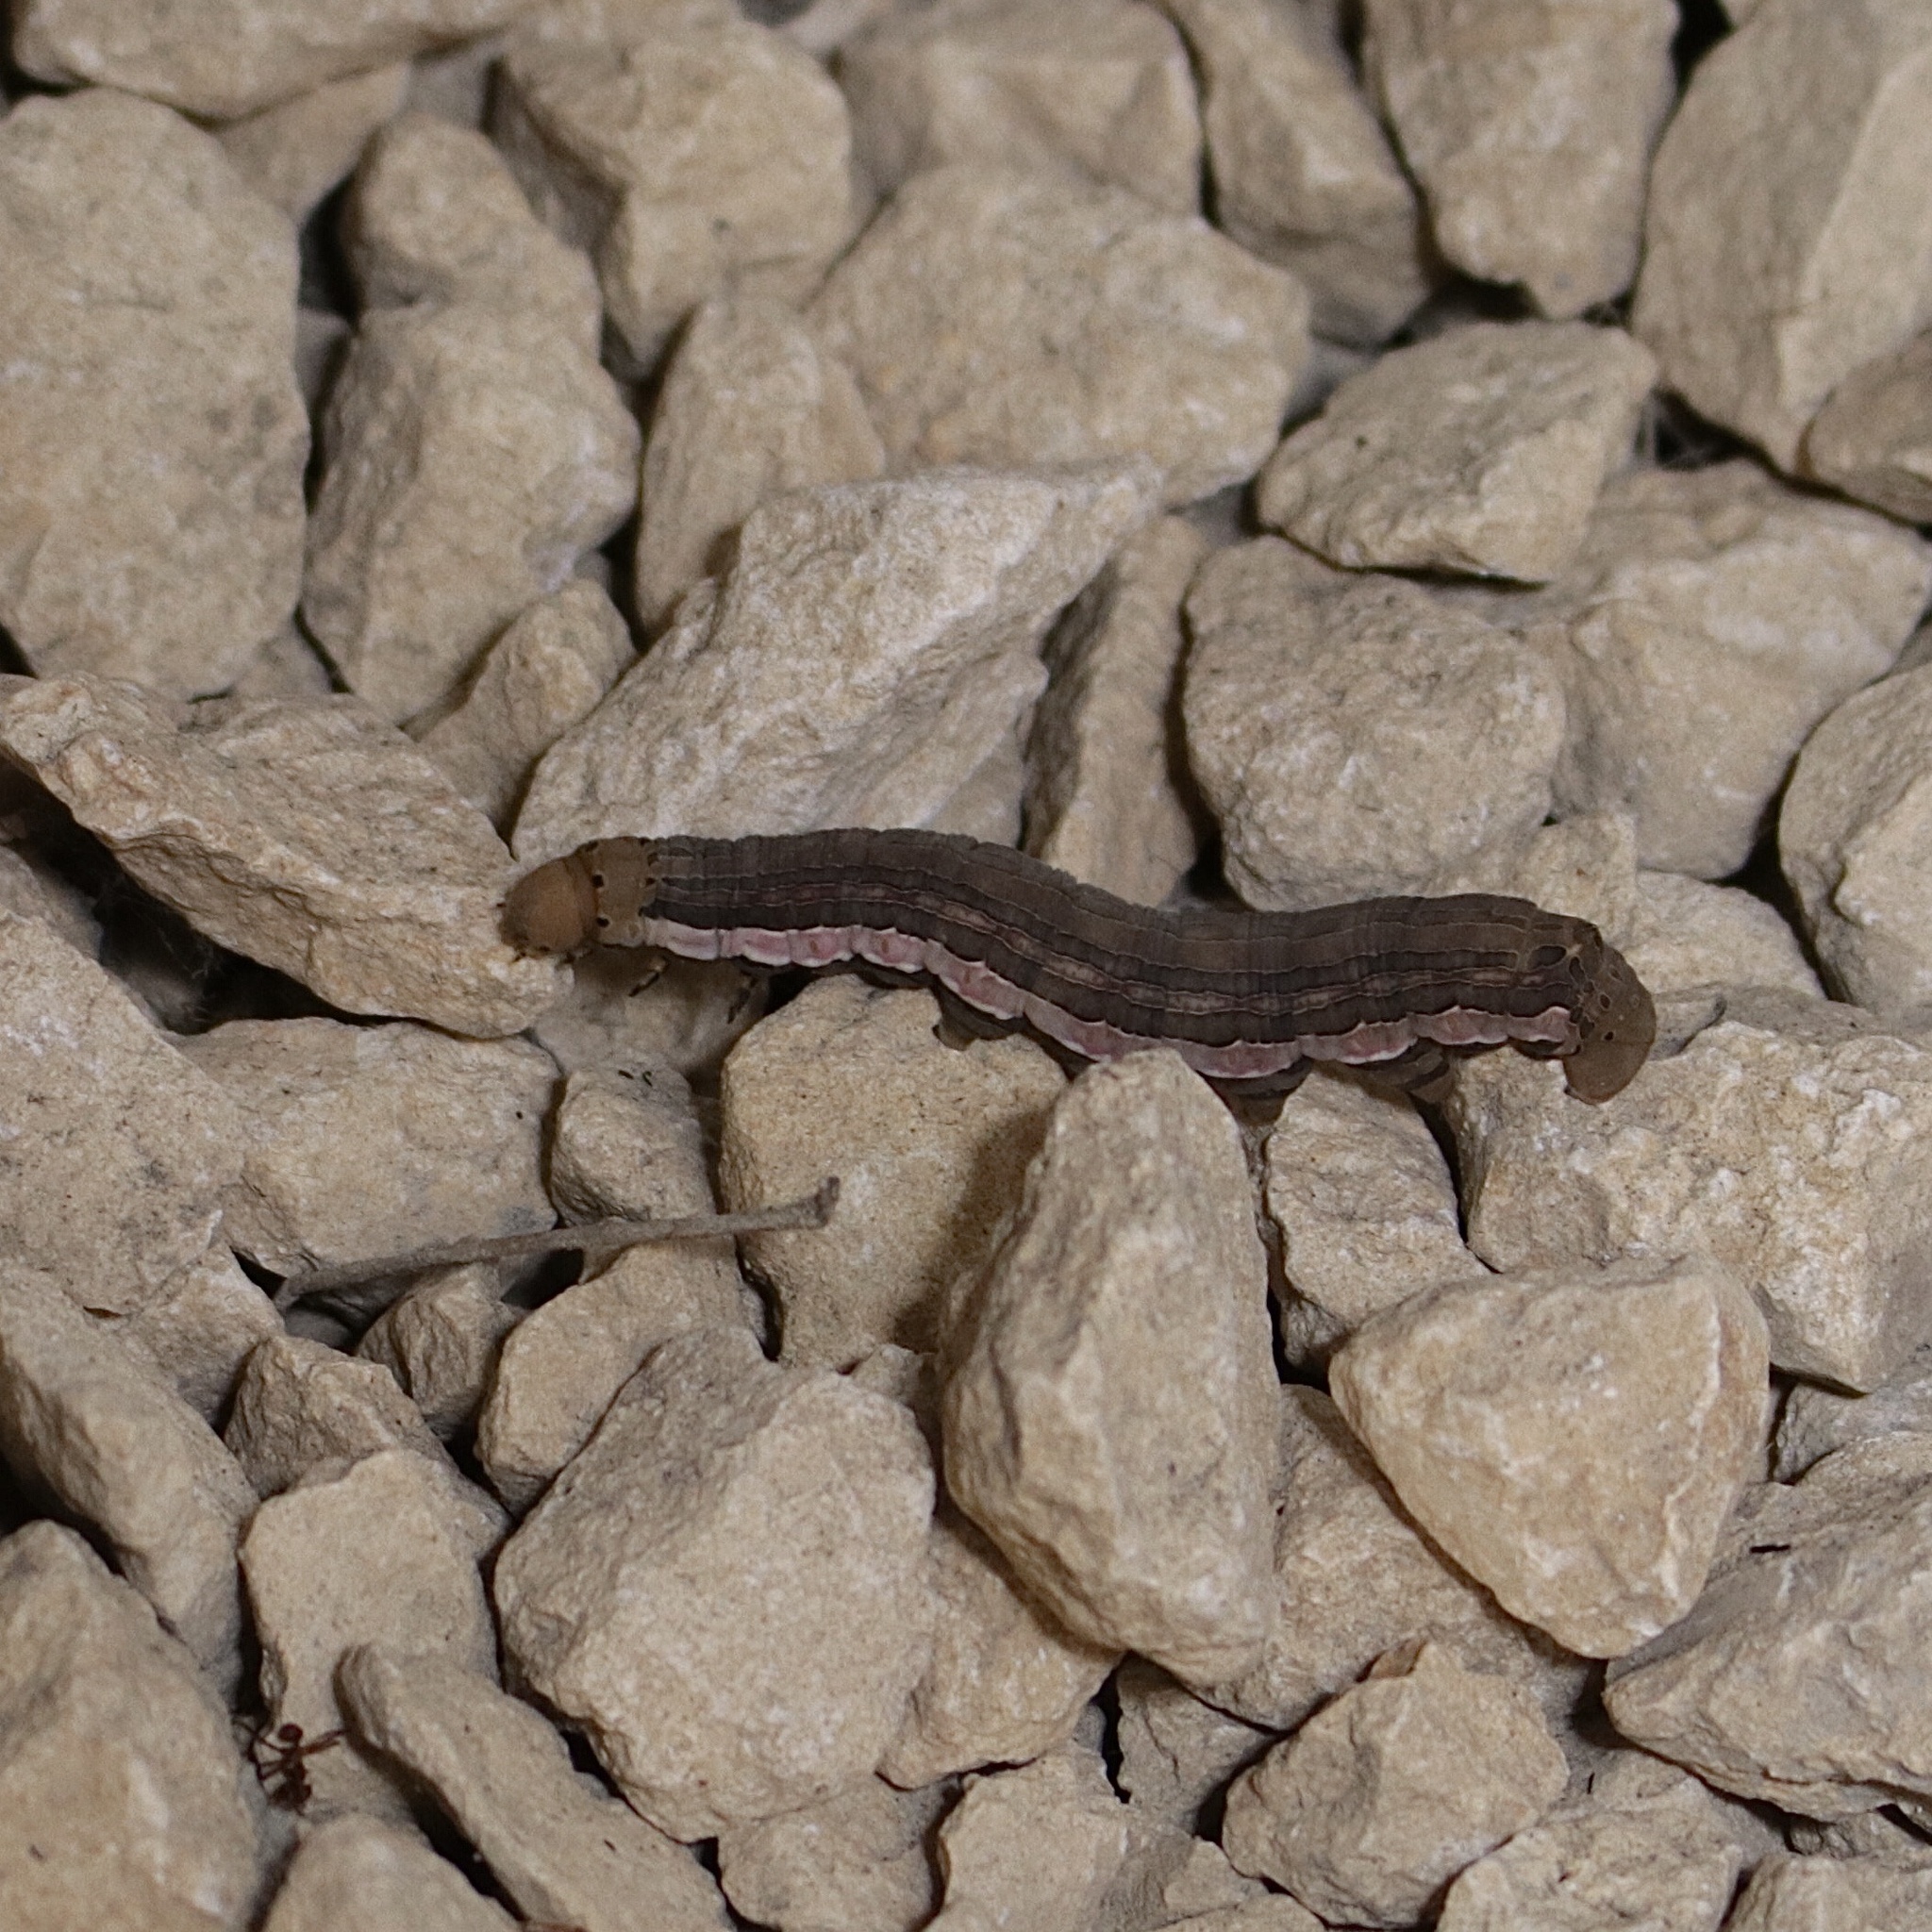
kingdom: Animalia
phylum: Arthropoda
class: Insecta
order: Lepidoptera
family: Sphingidae
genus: Isognathus
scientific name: Isognathus scyron
